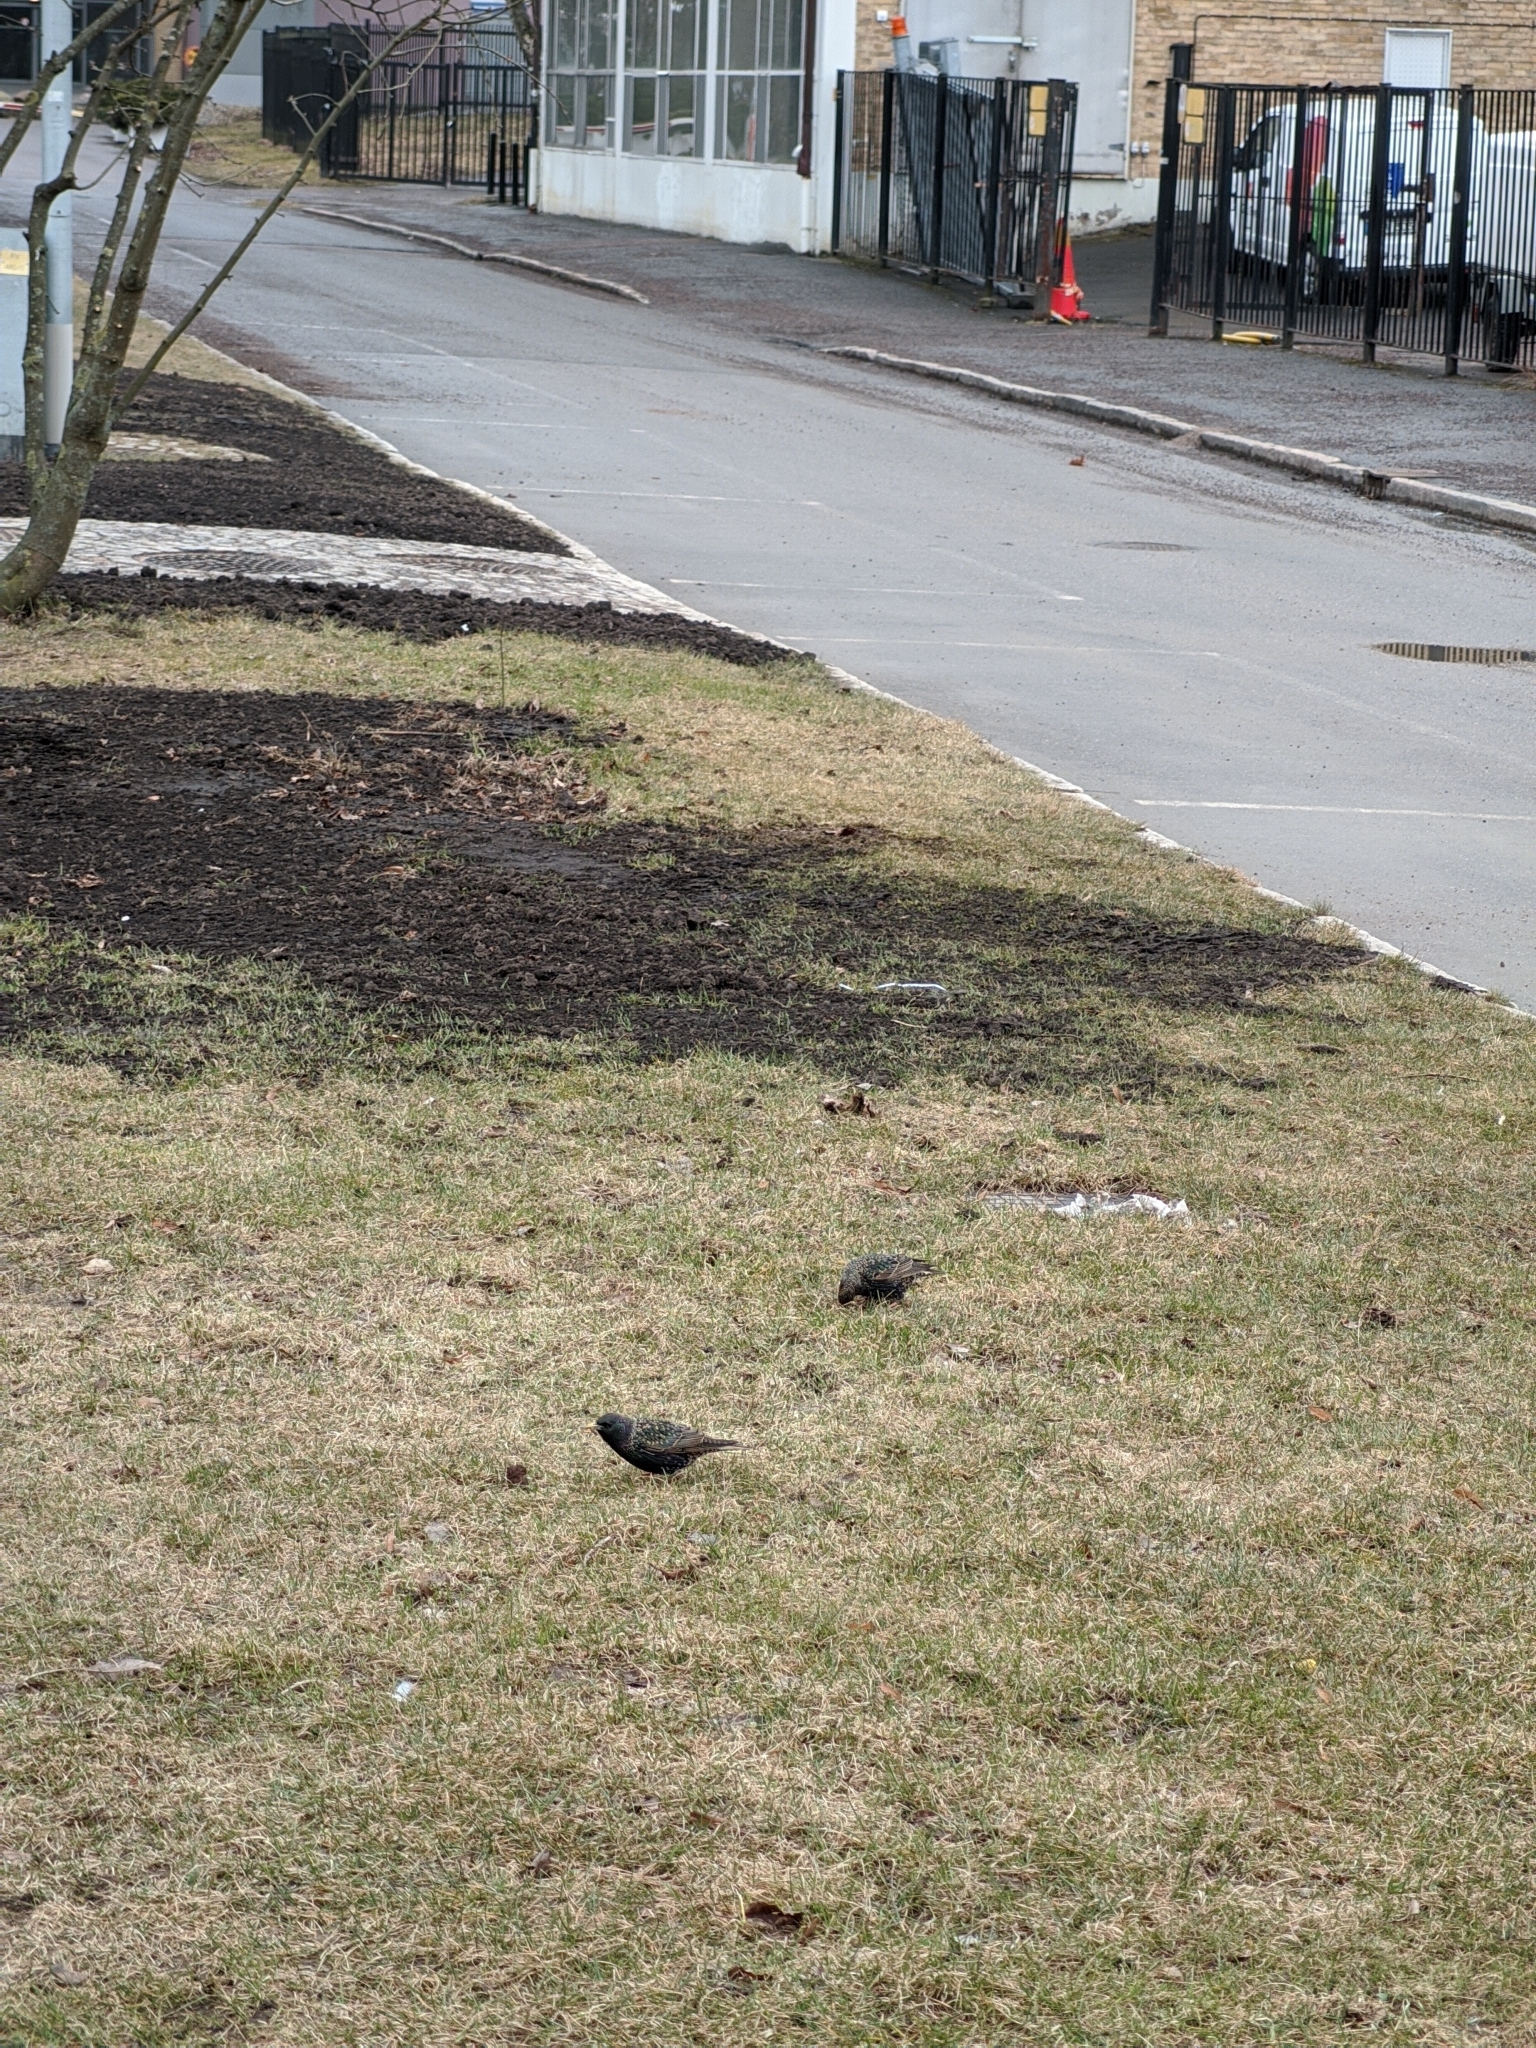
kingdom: Animalia
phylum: Chordata
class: Aves
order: Passeriformes
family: Sturnidae
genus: Sturnus
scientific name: Sturnus vulgaris
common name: Common starling
